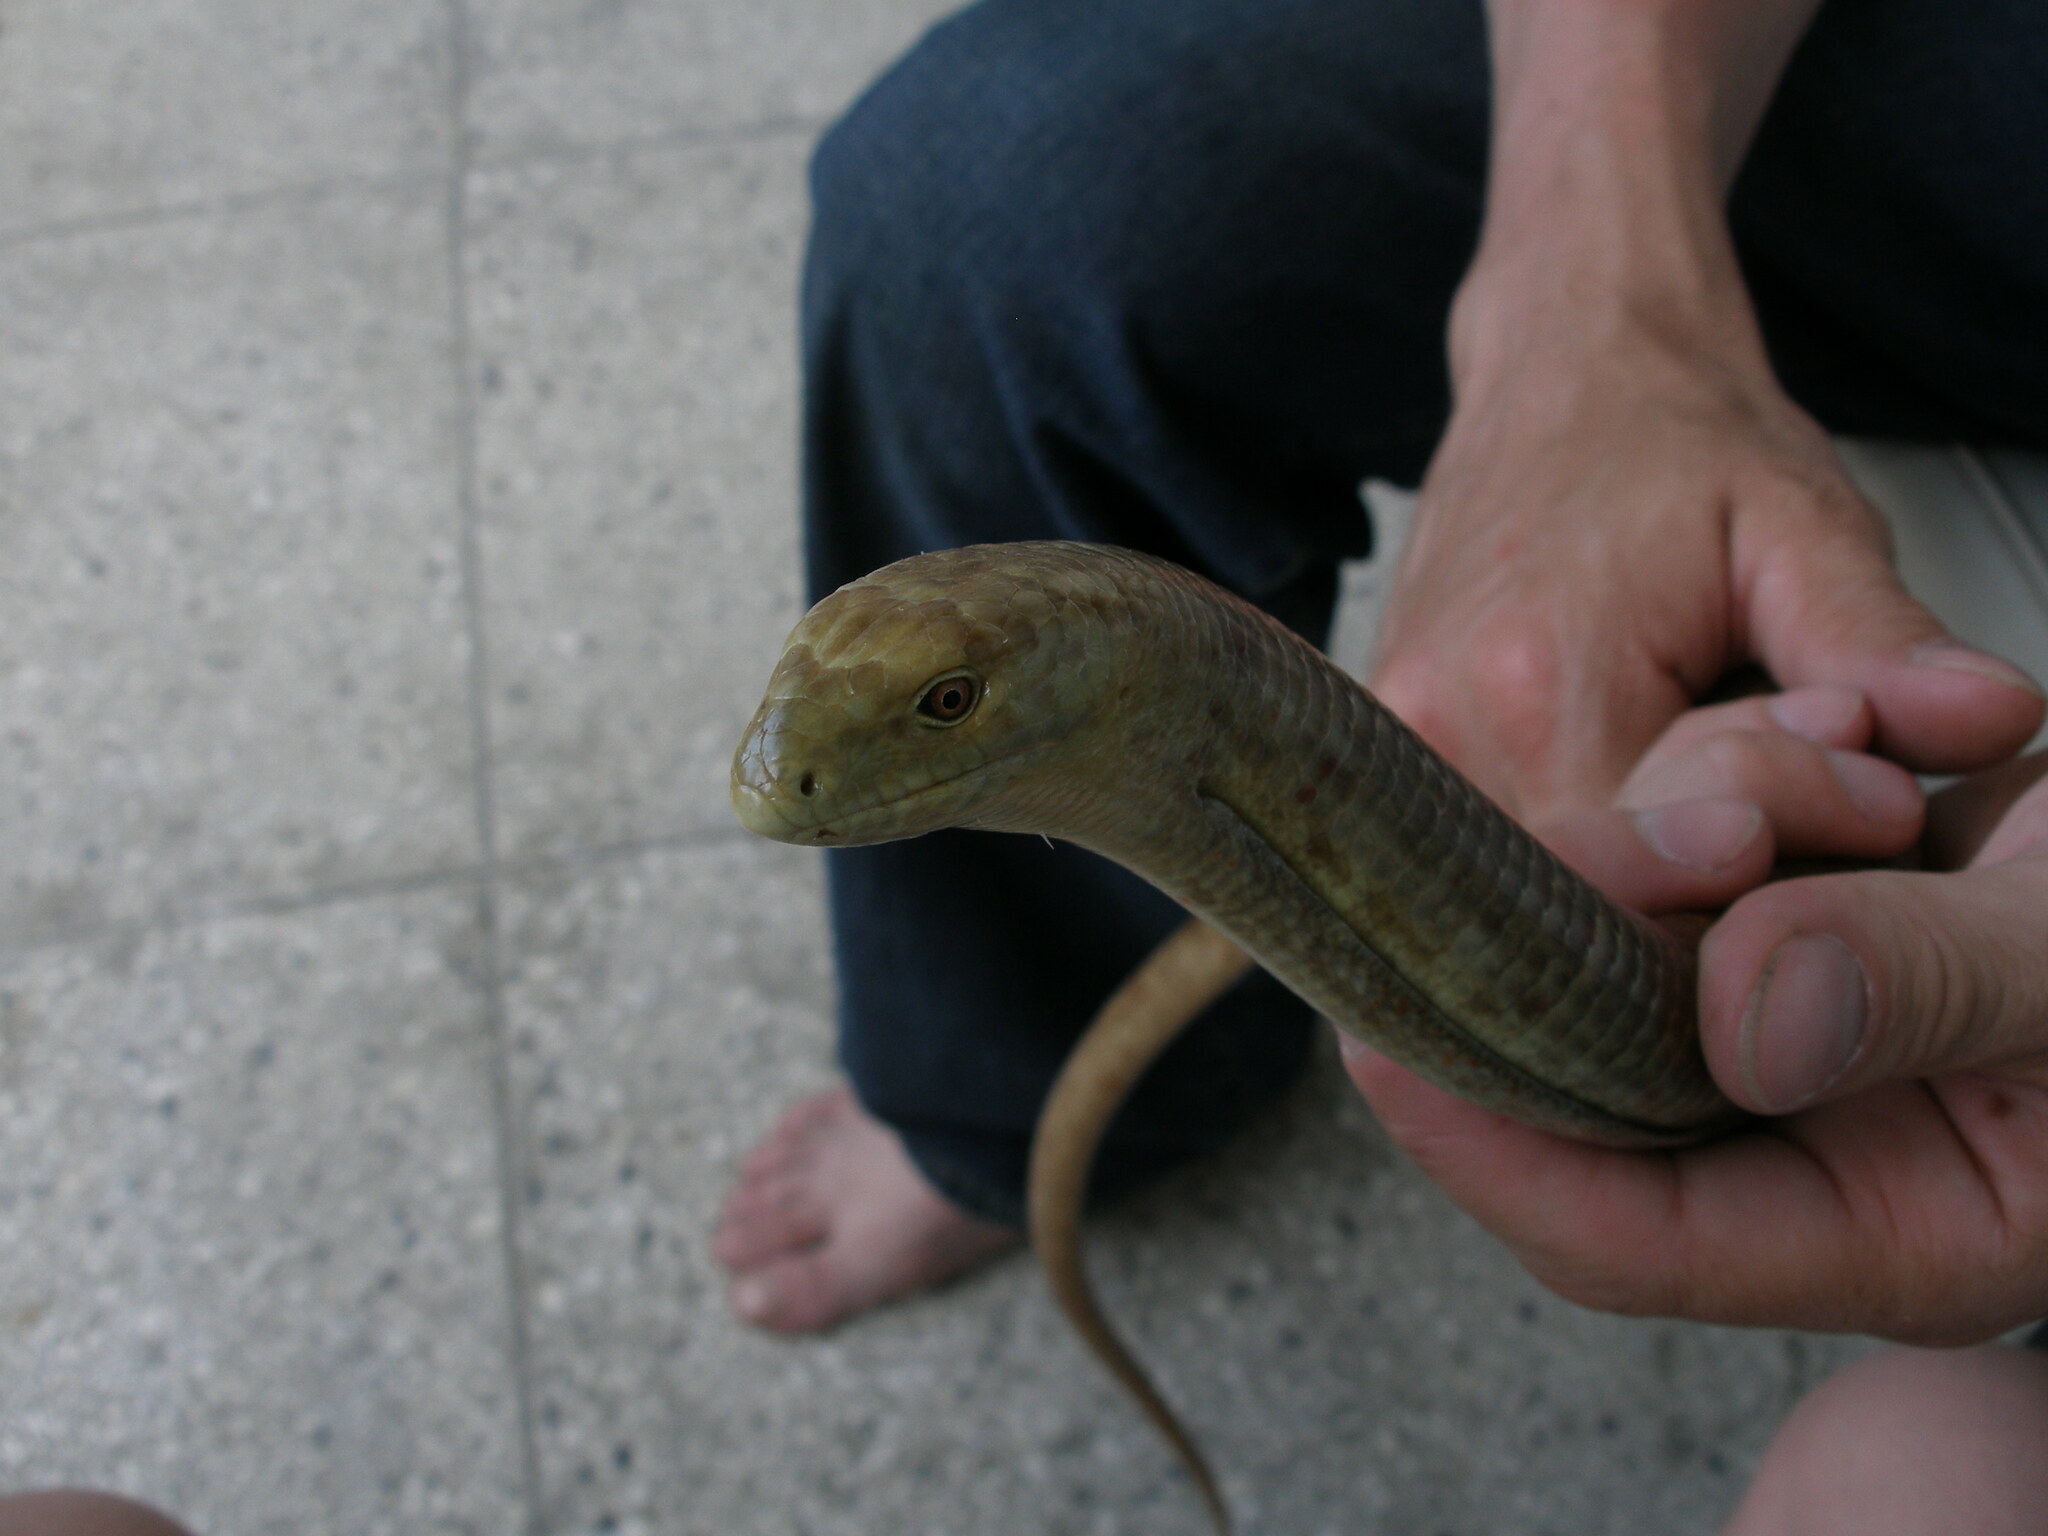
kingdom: Animalia
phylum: Chordata
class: Squamata
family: Anguidae
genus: Pseudopus
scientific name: Pseudopus apodus
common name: European glass lizard
